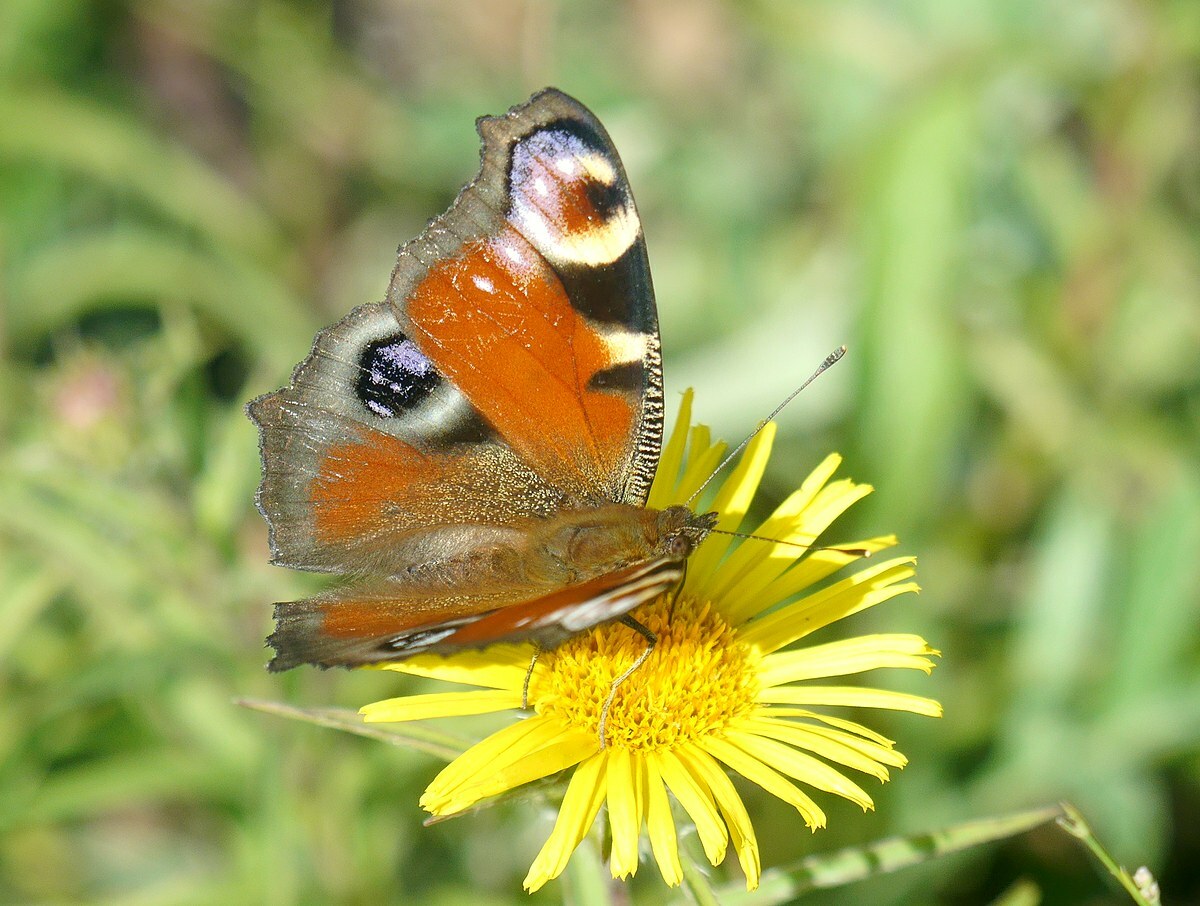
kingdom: Animalia
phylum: Arthropoda
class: Insecta
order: Lepidoptera
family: Nymphalidae
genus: Aglais
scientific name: Aglais io
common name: Peacock
